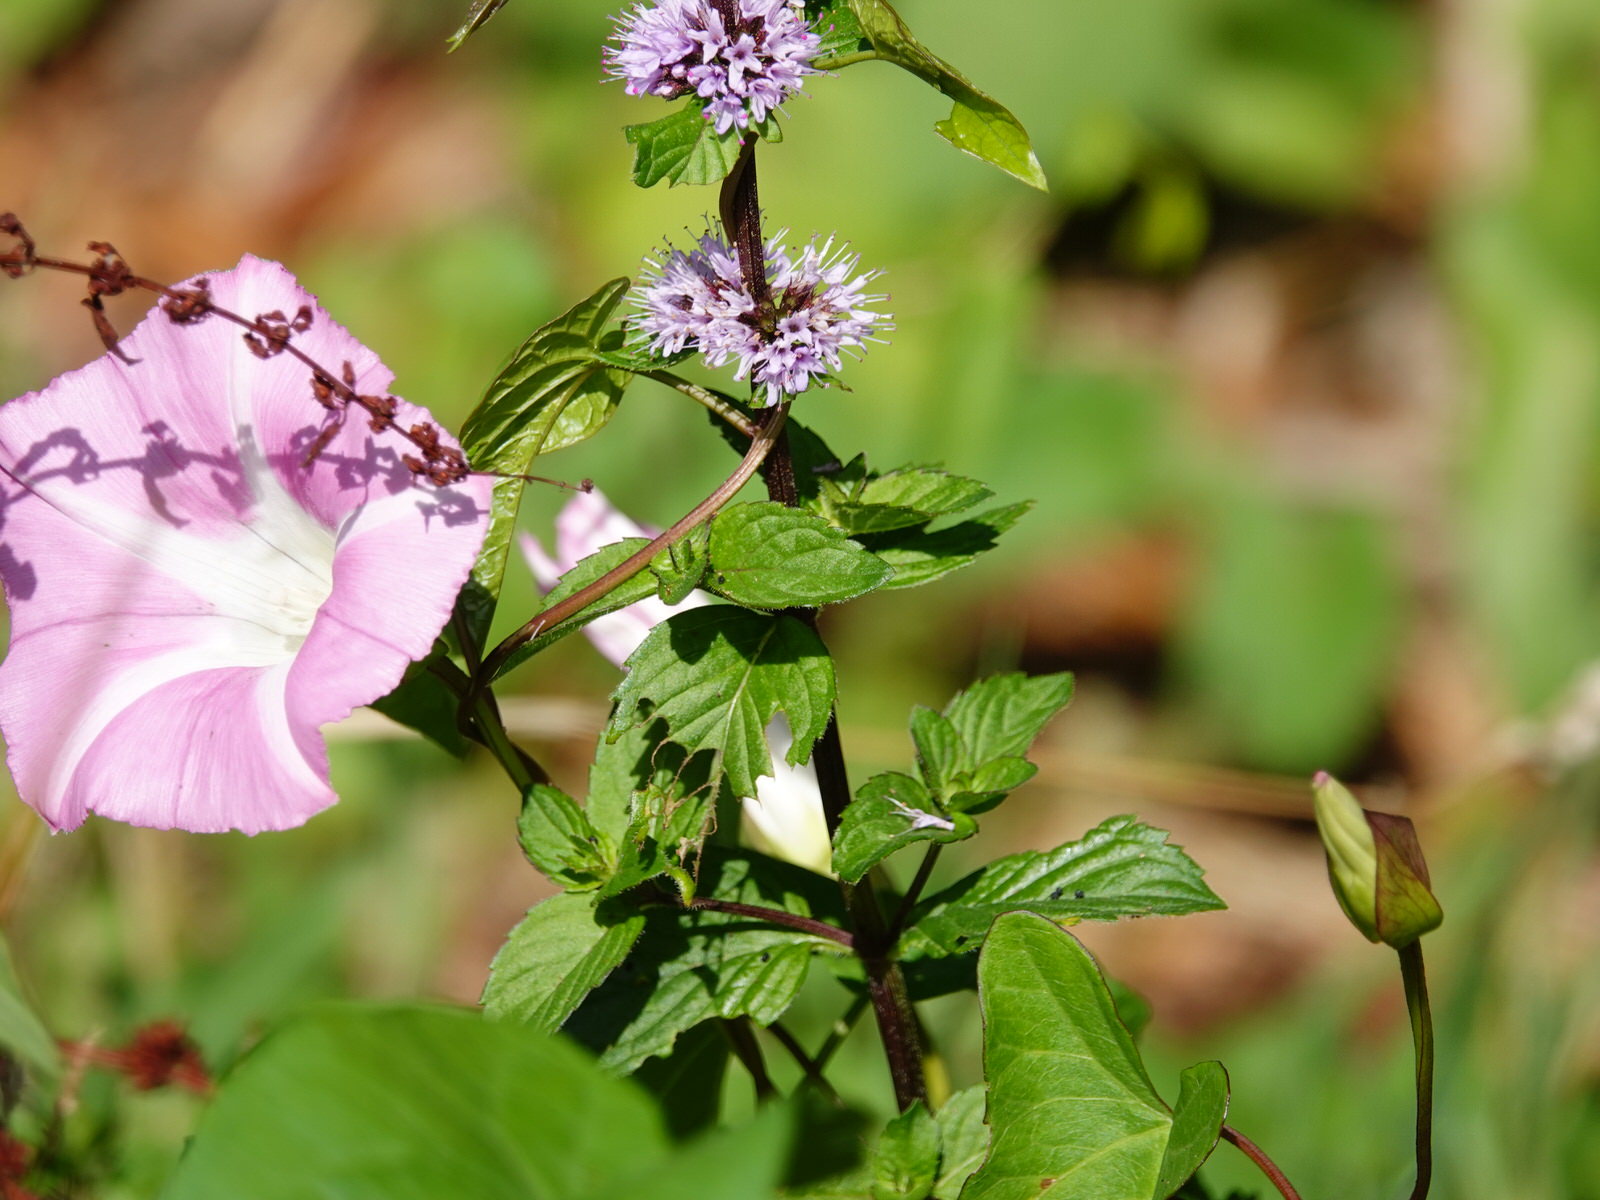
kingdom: Plantae
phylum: Tracheophyta
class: Magnoliopsida
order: Lamiales
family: Lamiaceae
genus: Mentha
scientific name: Mentha pulegium
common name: Pennyroyal
